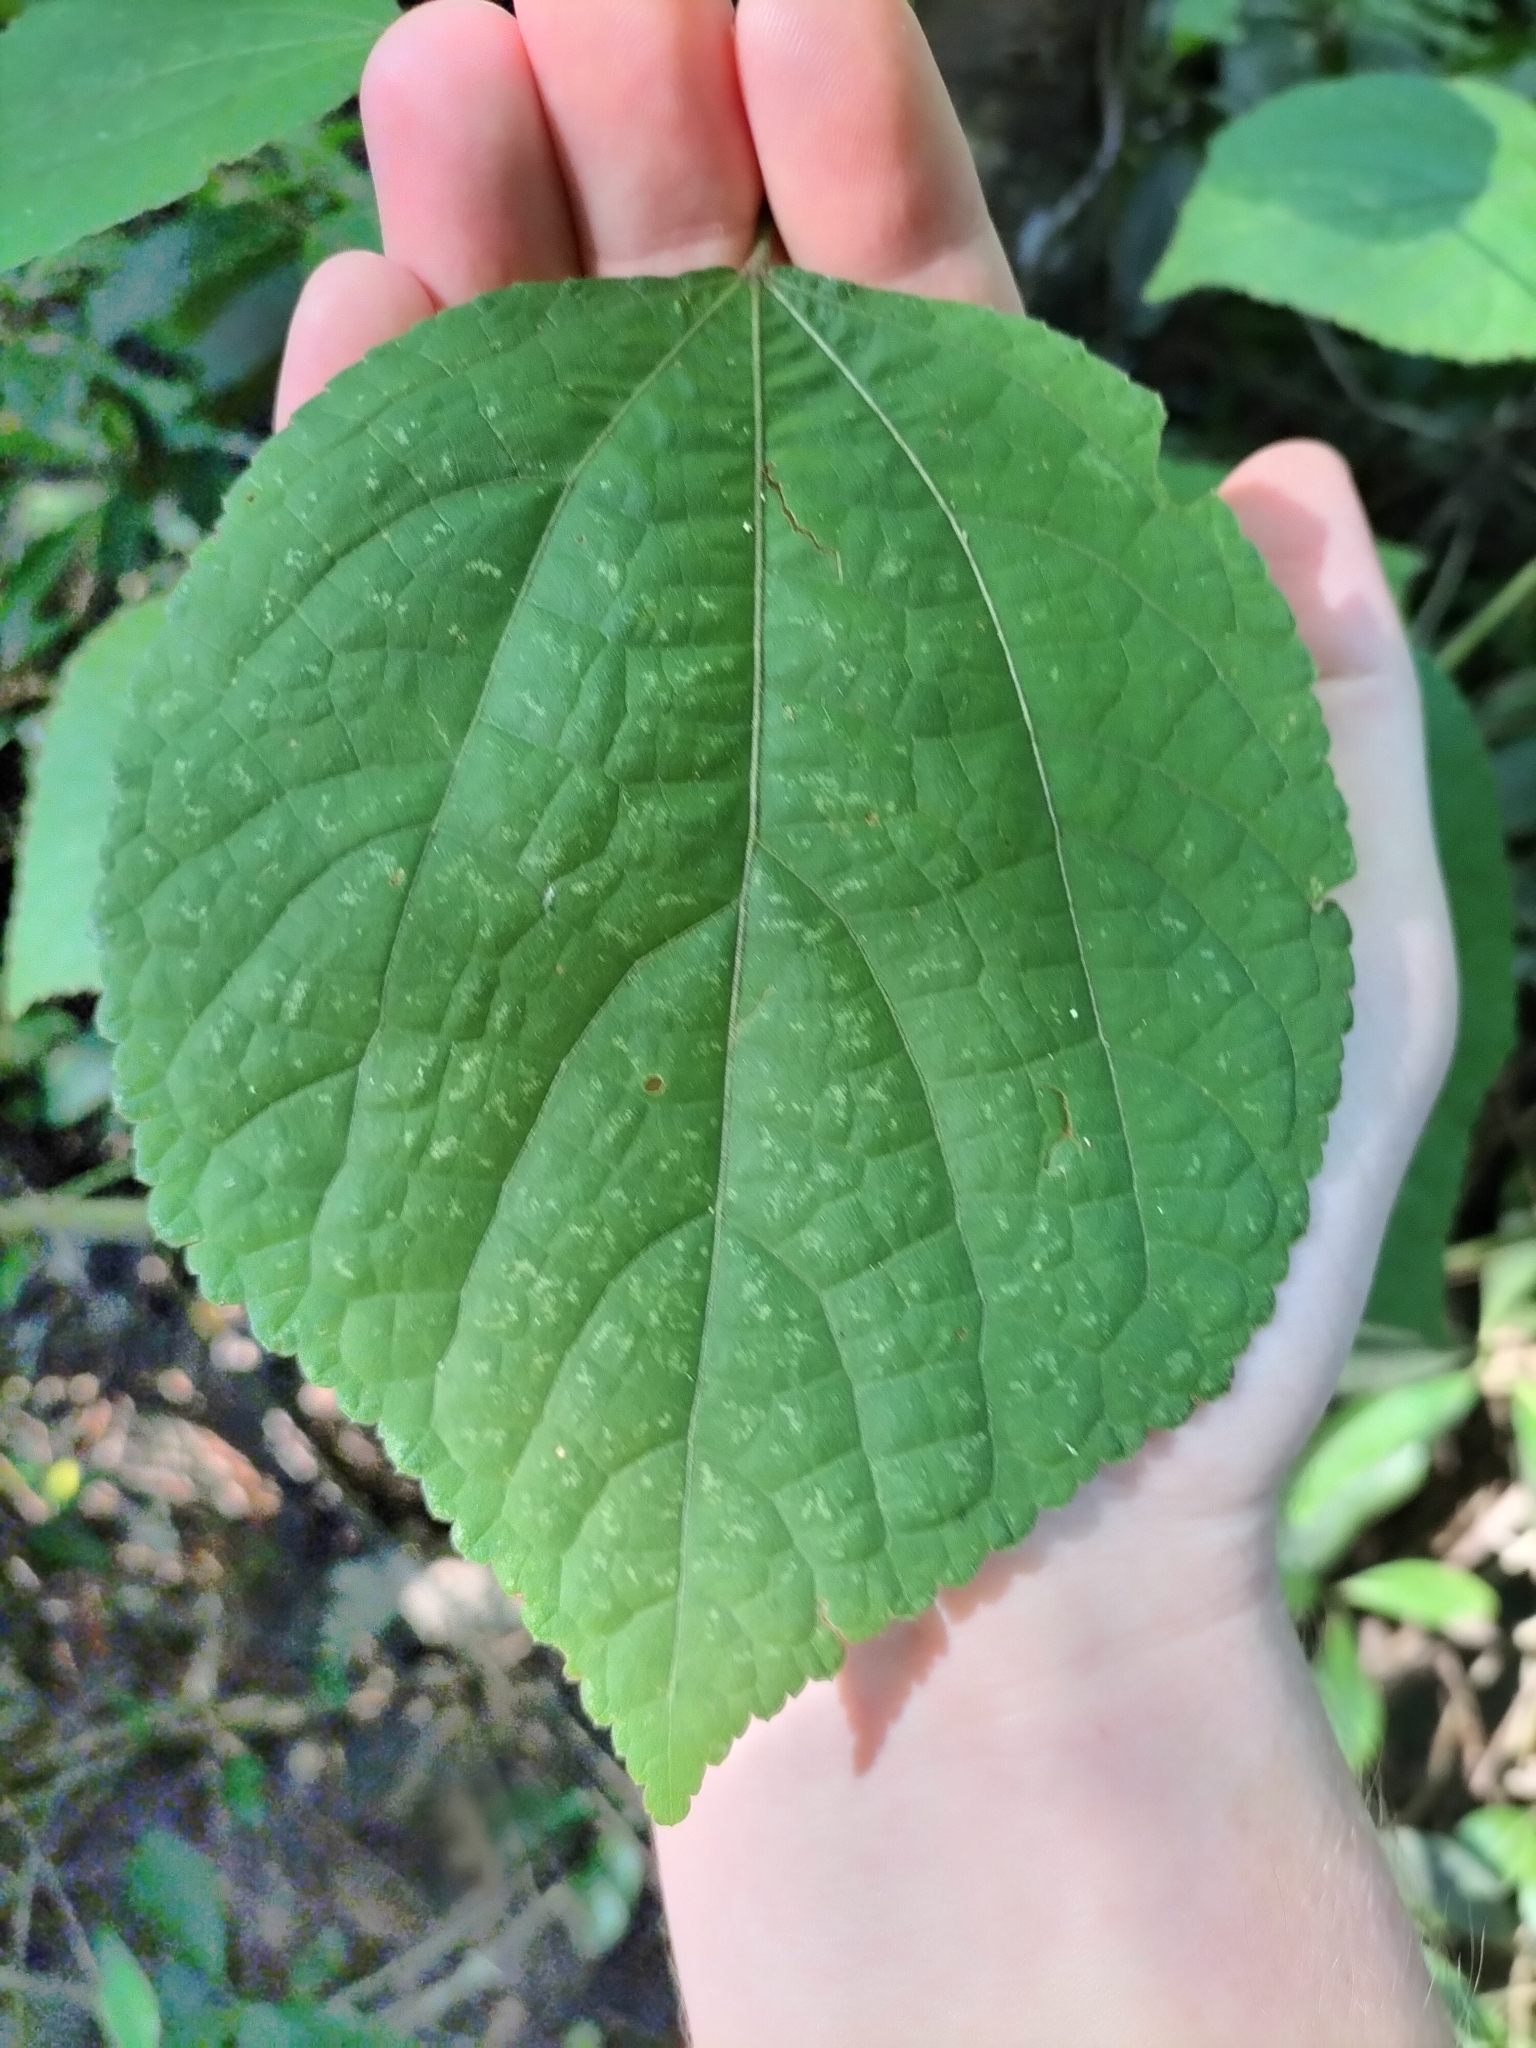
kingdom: Plantae
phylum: Tracheophyta
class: Magnoliopsida
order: Malvales
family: Malvaceae
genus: Triumfetta
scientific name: Triumfetta rhomboidea
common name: Diamond burbark
